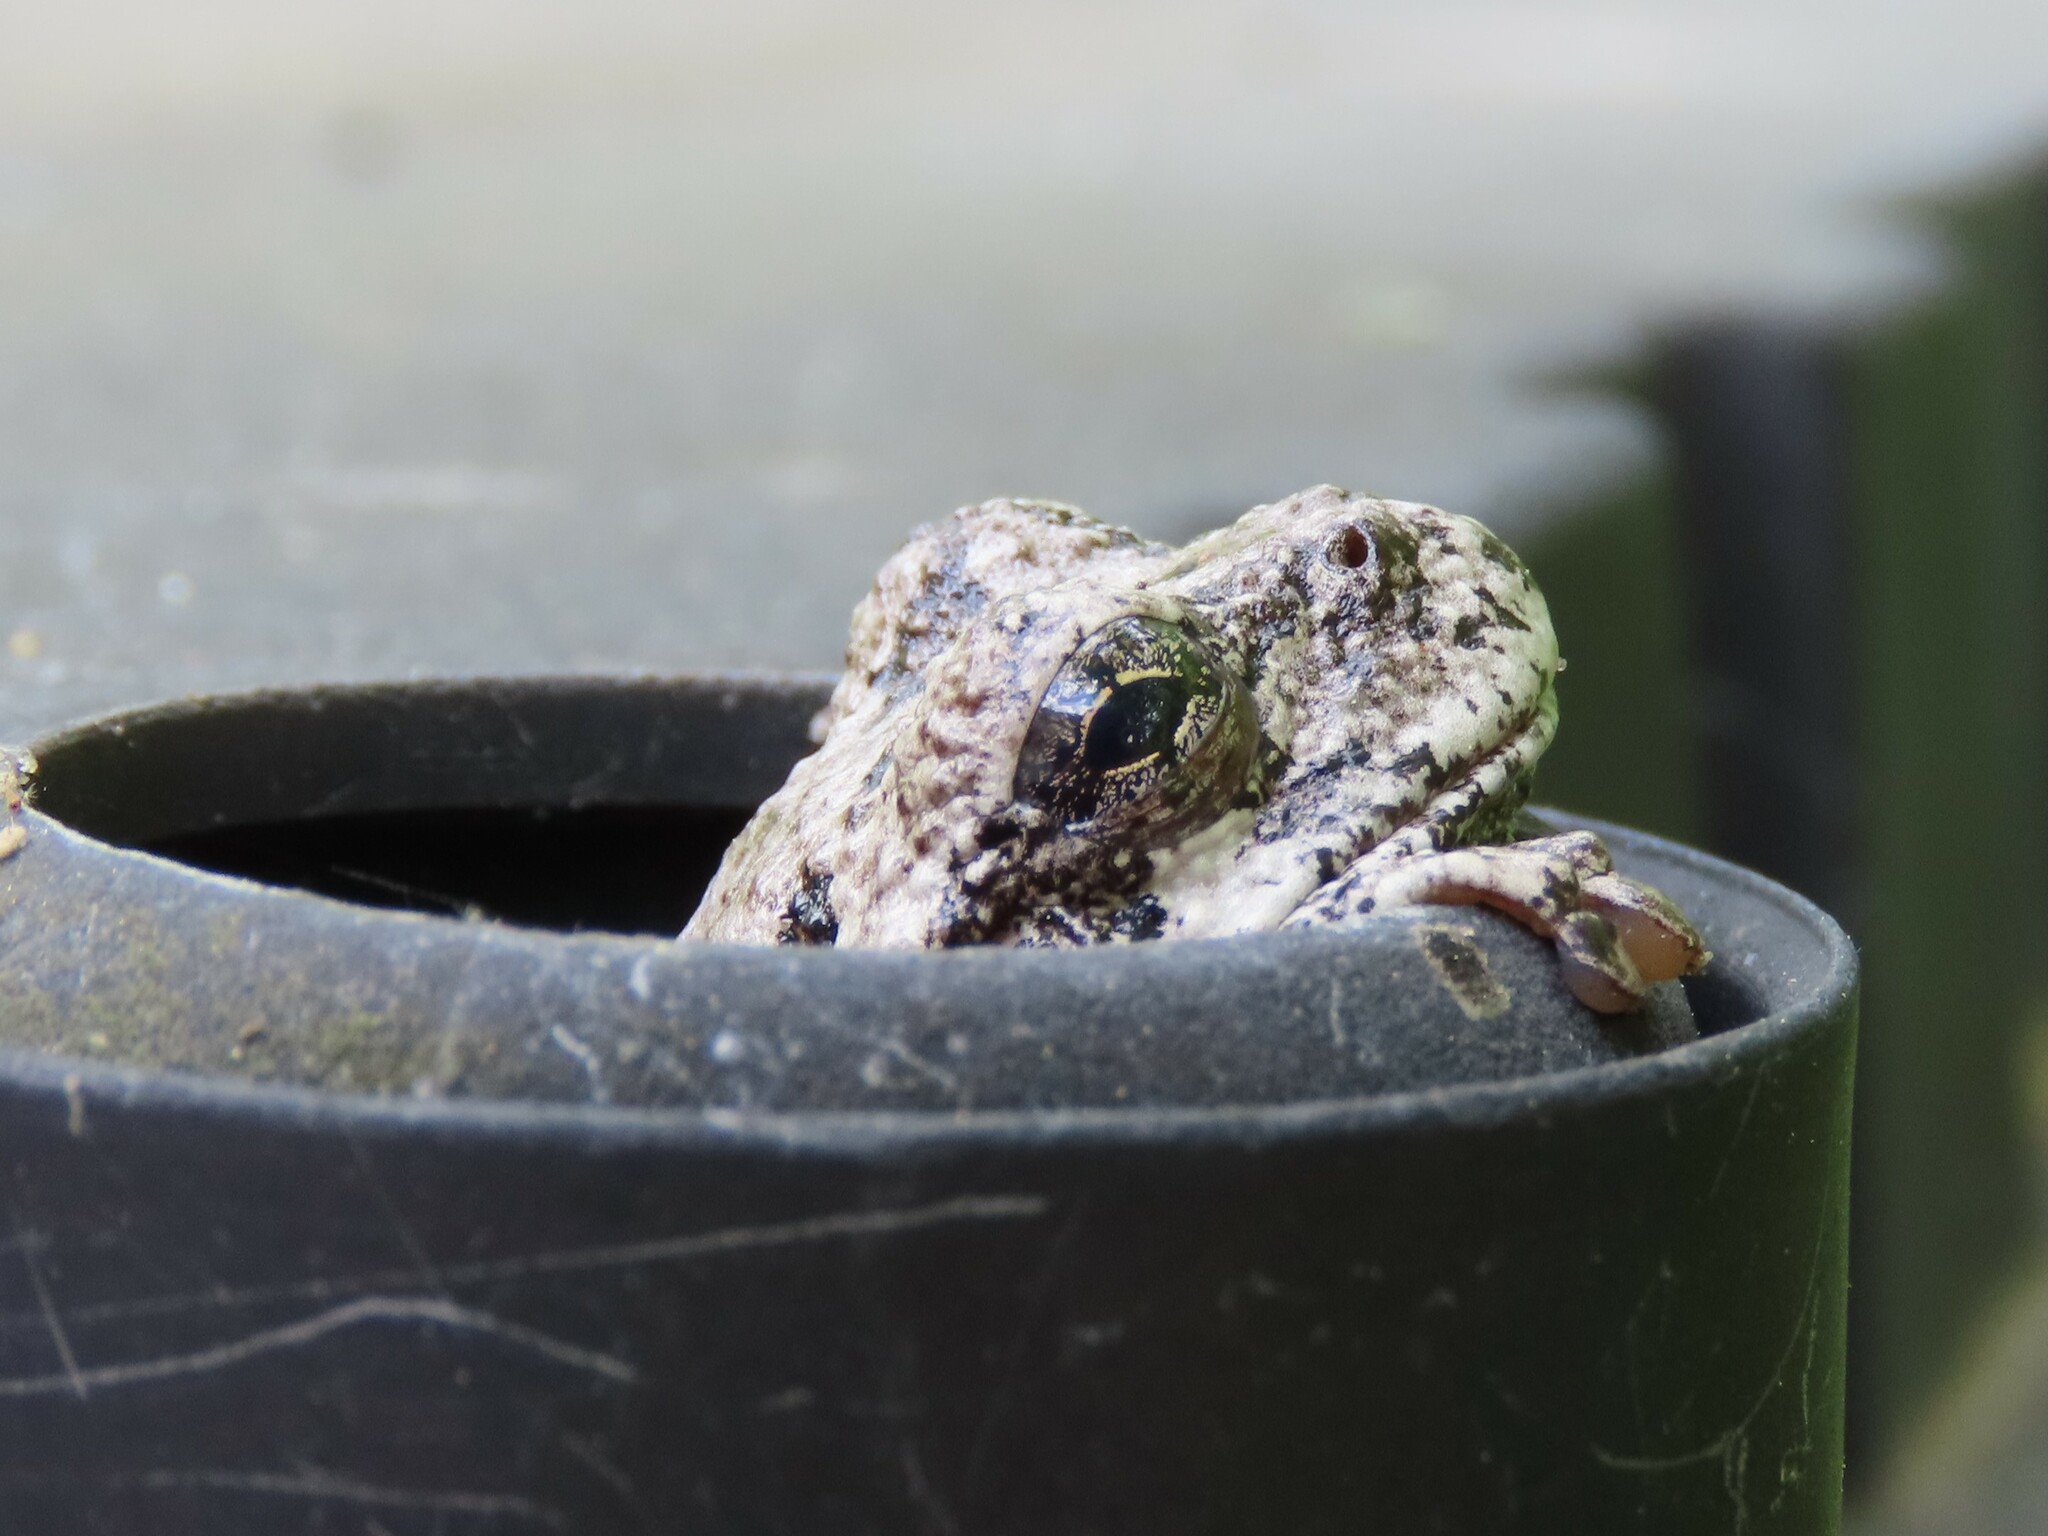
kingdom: Animalia
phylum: Chordata
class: Amphibia
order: Anura
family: Hylidae
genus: Dryophytes
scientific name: Dryophytes versicolor
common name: Gray treefrog
